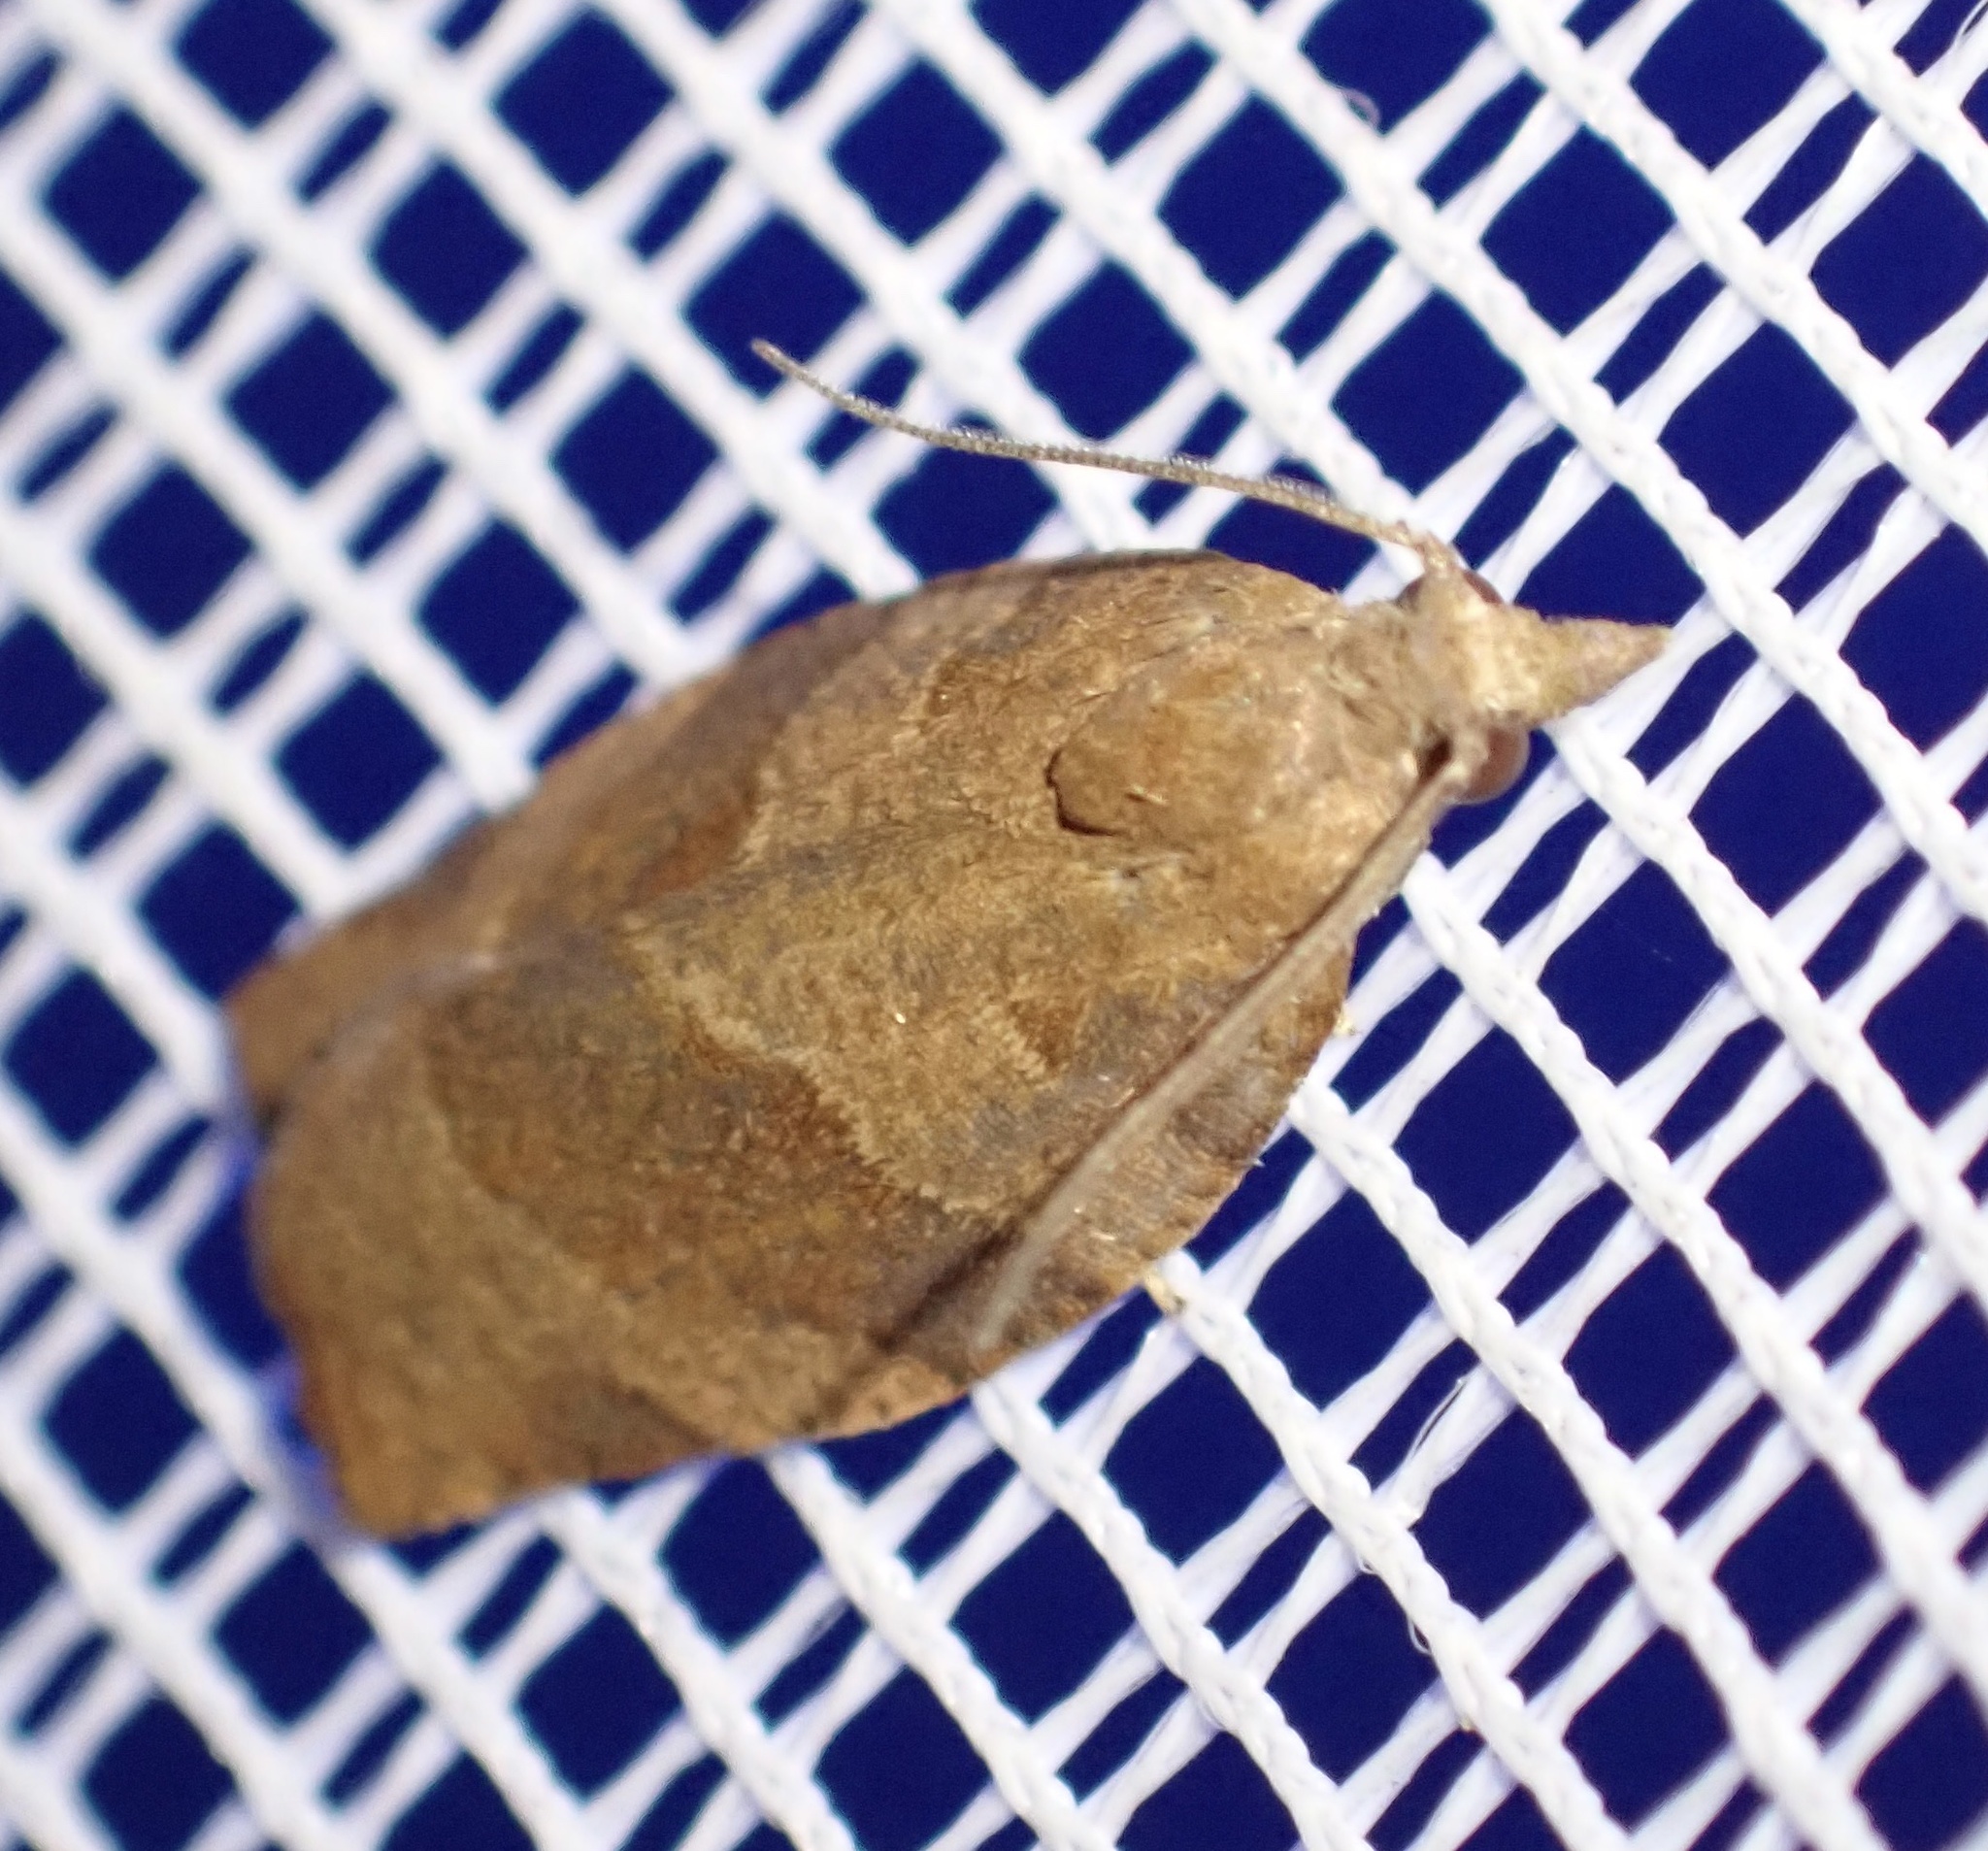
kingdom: Animalia
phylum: Arthropoda
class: Insecta
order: Lepidoptera
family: Tortricidae
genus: Pandemis
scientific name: Pandemis heparana
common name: Dark fruit-tree tortrix
